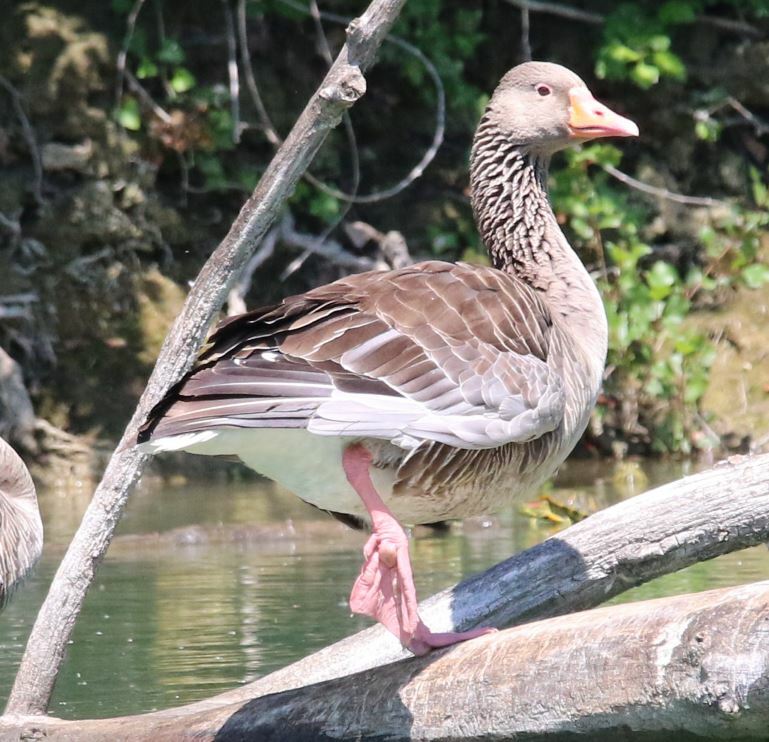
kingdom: Animalia
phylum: Chordata
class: Aves
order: Anseriformes
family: Anatidae
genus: Anser
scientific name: Anser anser
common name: Greylag goose
